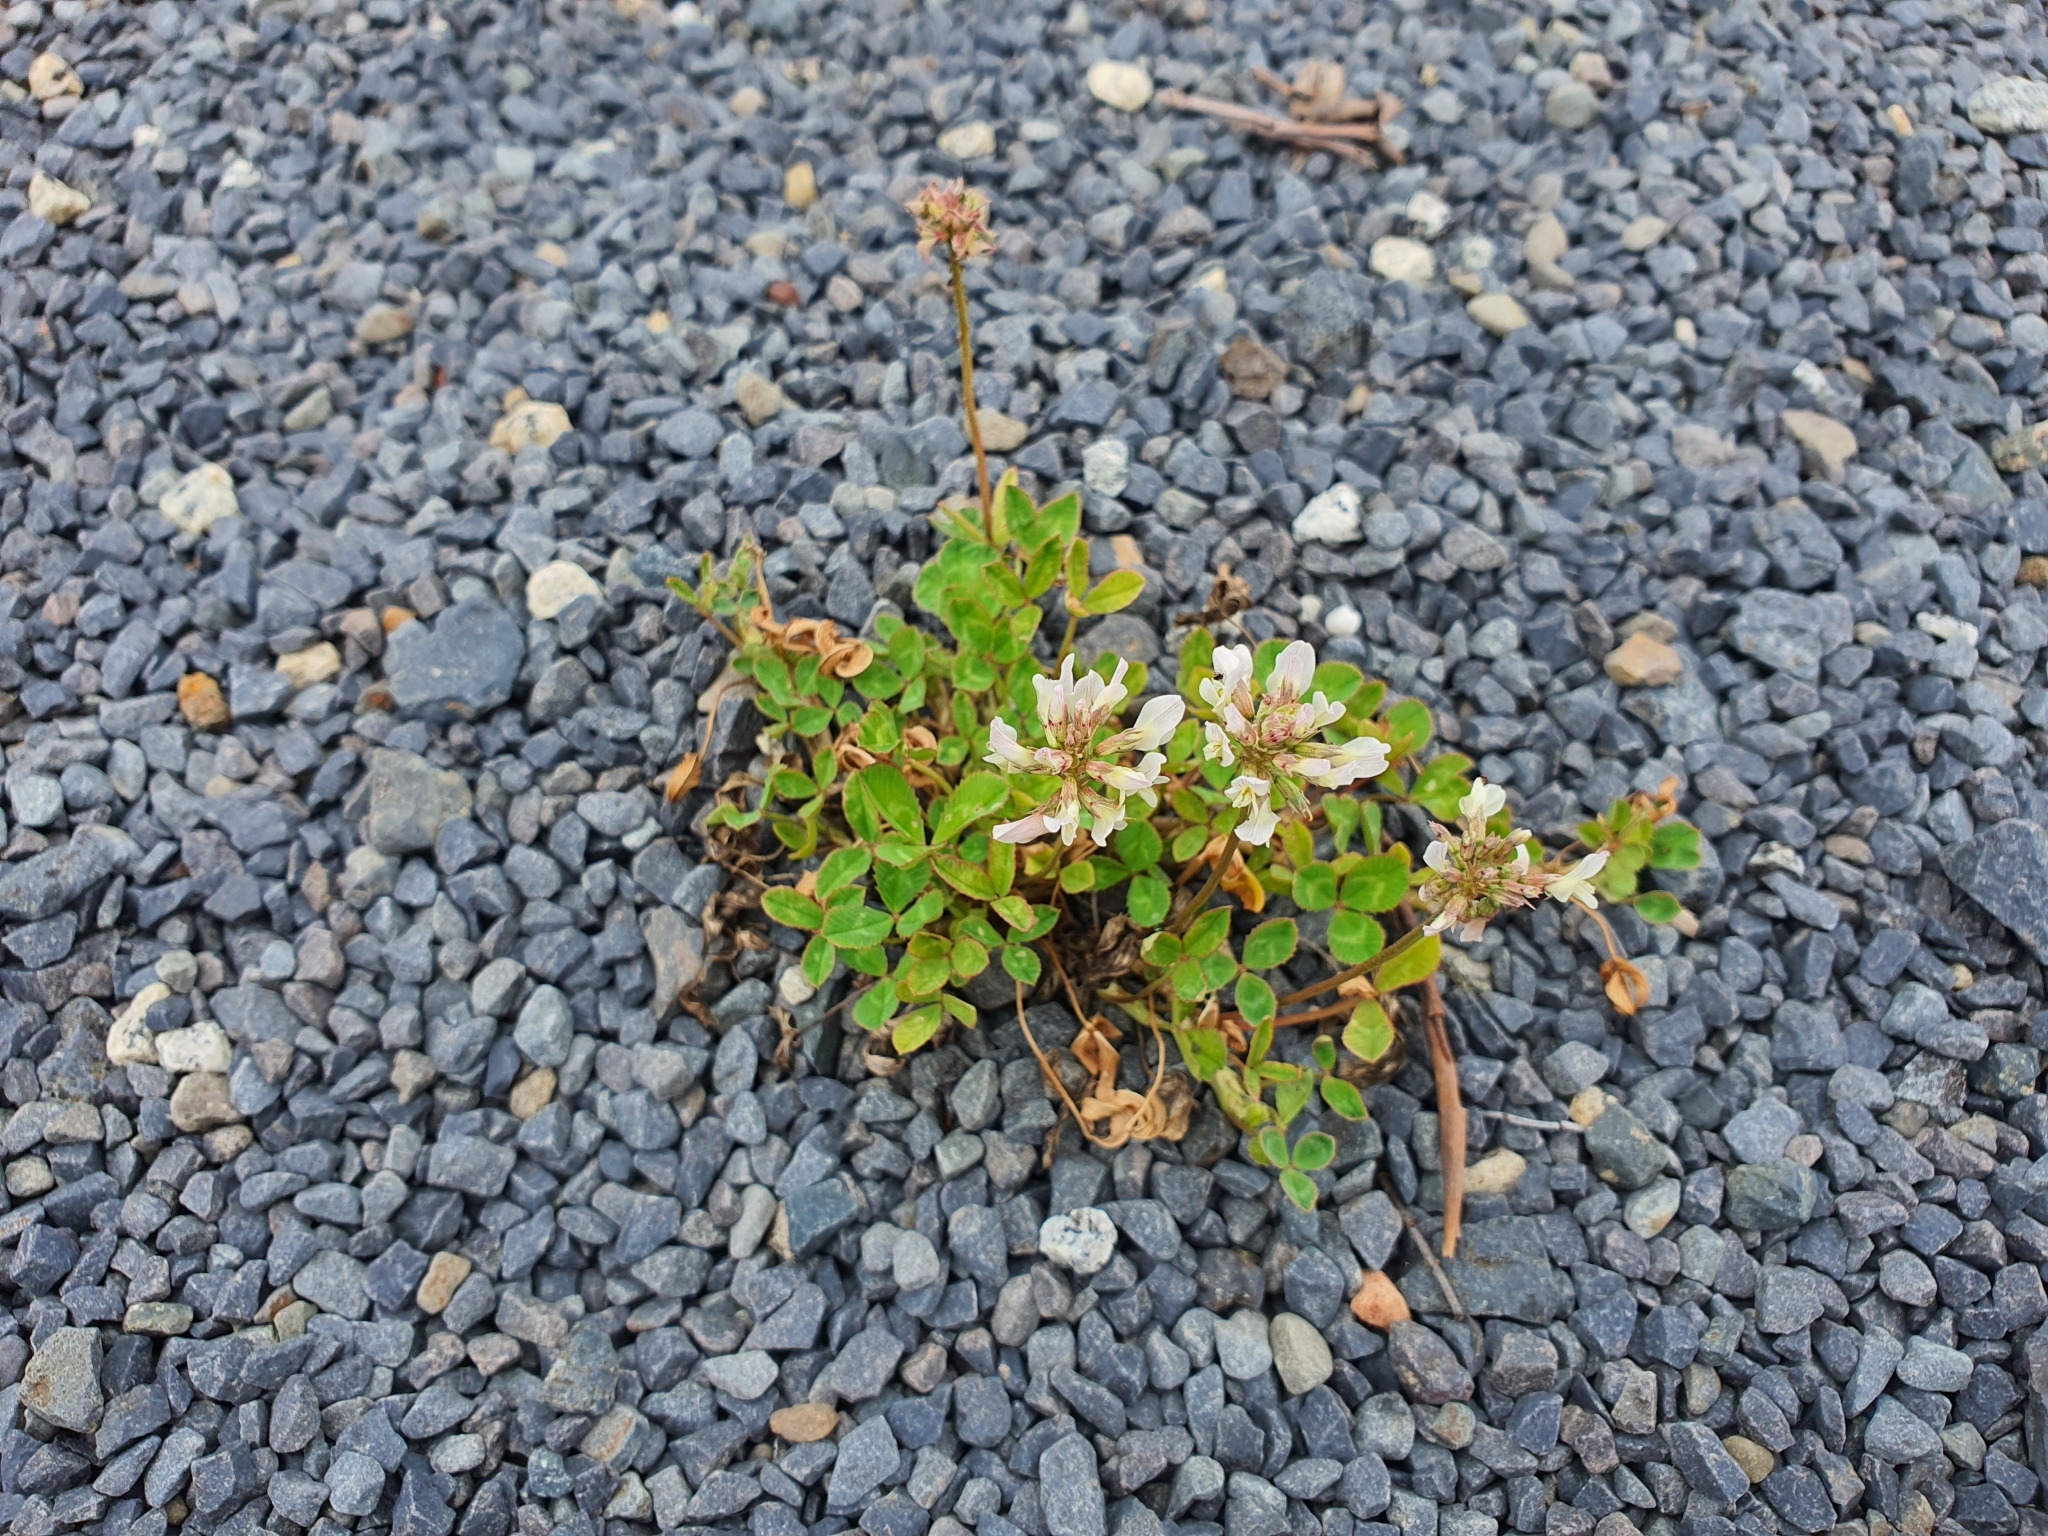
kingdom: Plantae
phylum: Tracheophyta
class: Magnoliopsida
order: Fabales
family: Fabaceae
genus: Trifolium
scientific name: Trifolium repens
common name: White clover
